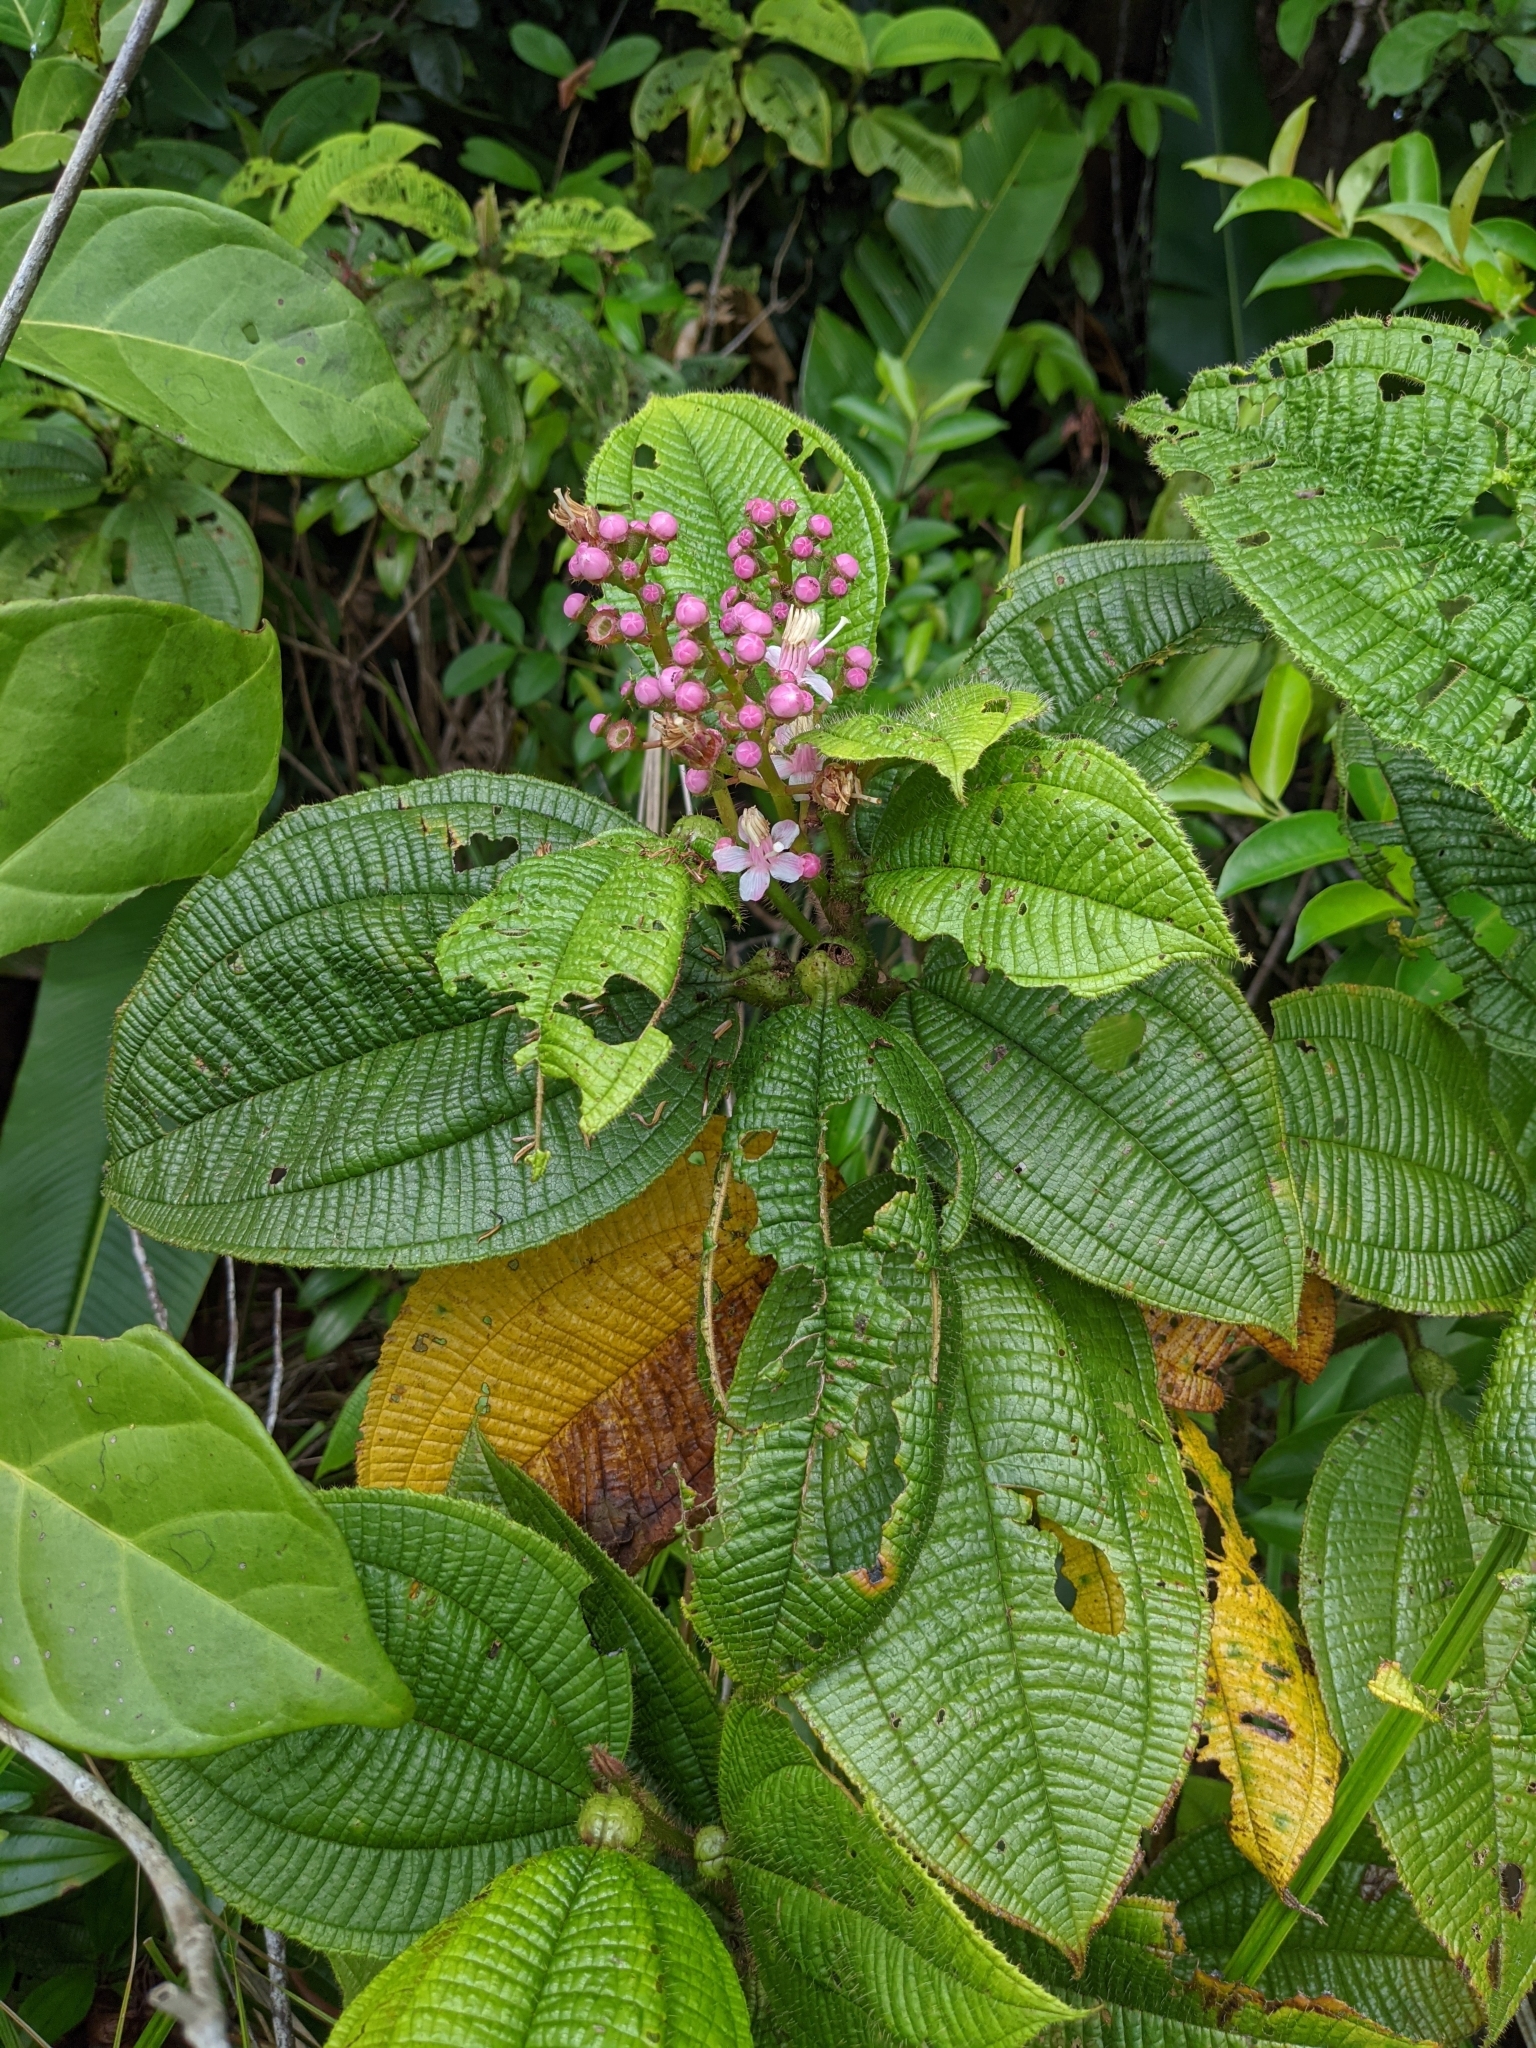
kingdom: Plantae
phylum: Tracheophyta
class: Magnoliopsida
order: Myrtales
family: Melastomataceae
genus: Miconia
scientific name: Miconia tococa
